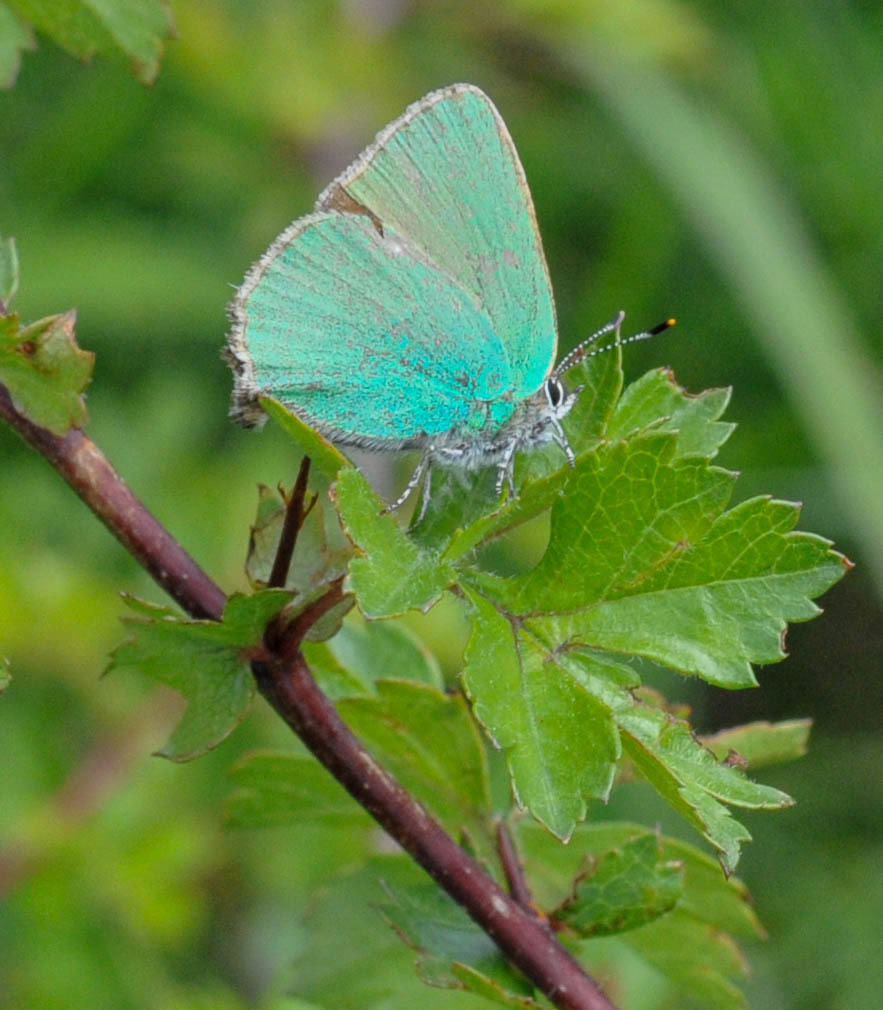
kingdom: Animalia
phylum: Arthropoda
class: Insecta
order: Lepidoptera
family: Lycaenidae
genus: Callophrys
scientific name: Callophrys rubi
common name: Green hairstreak
